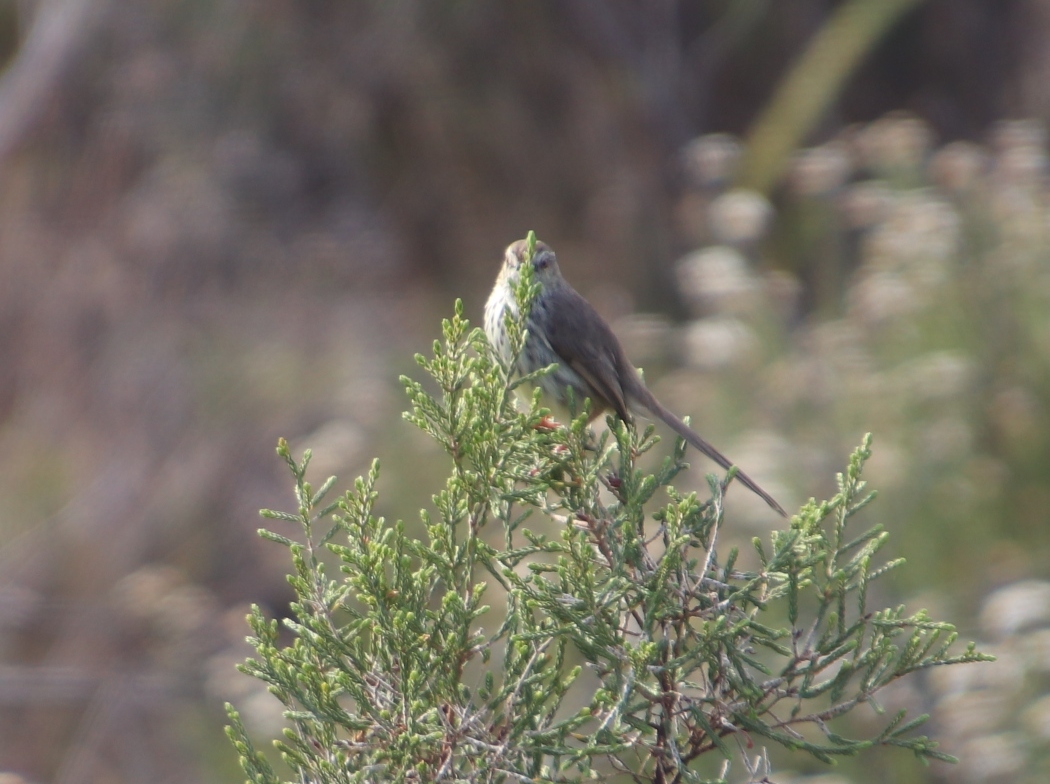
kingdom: Animalia
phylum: Chordata
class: Aves
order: Passeriformes
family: Cisticolidae
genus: Prinia
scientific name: Prinia maculosa
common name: Karoo prinia
